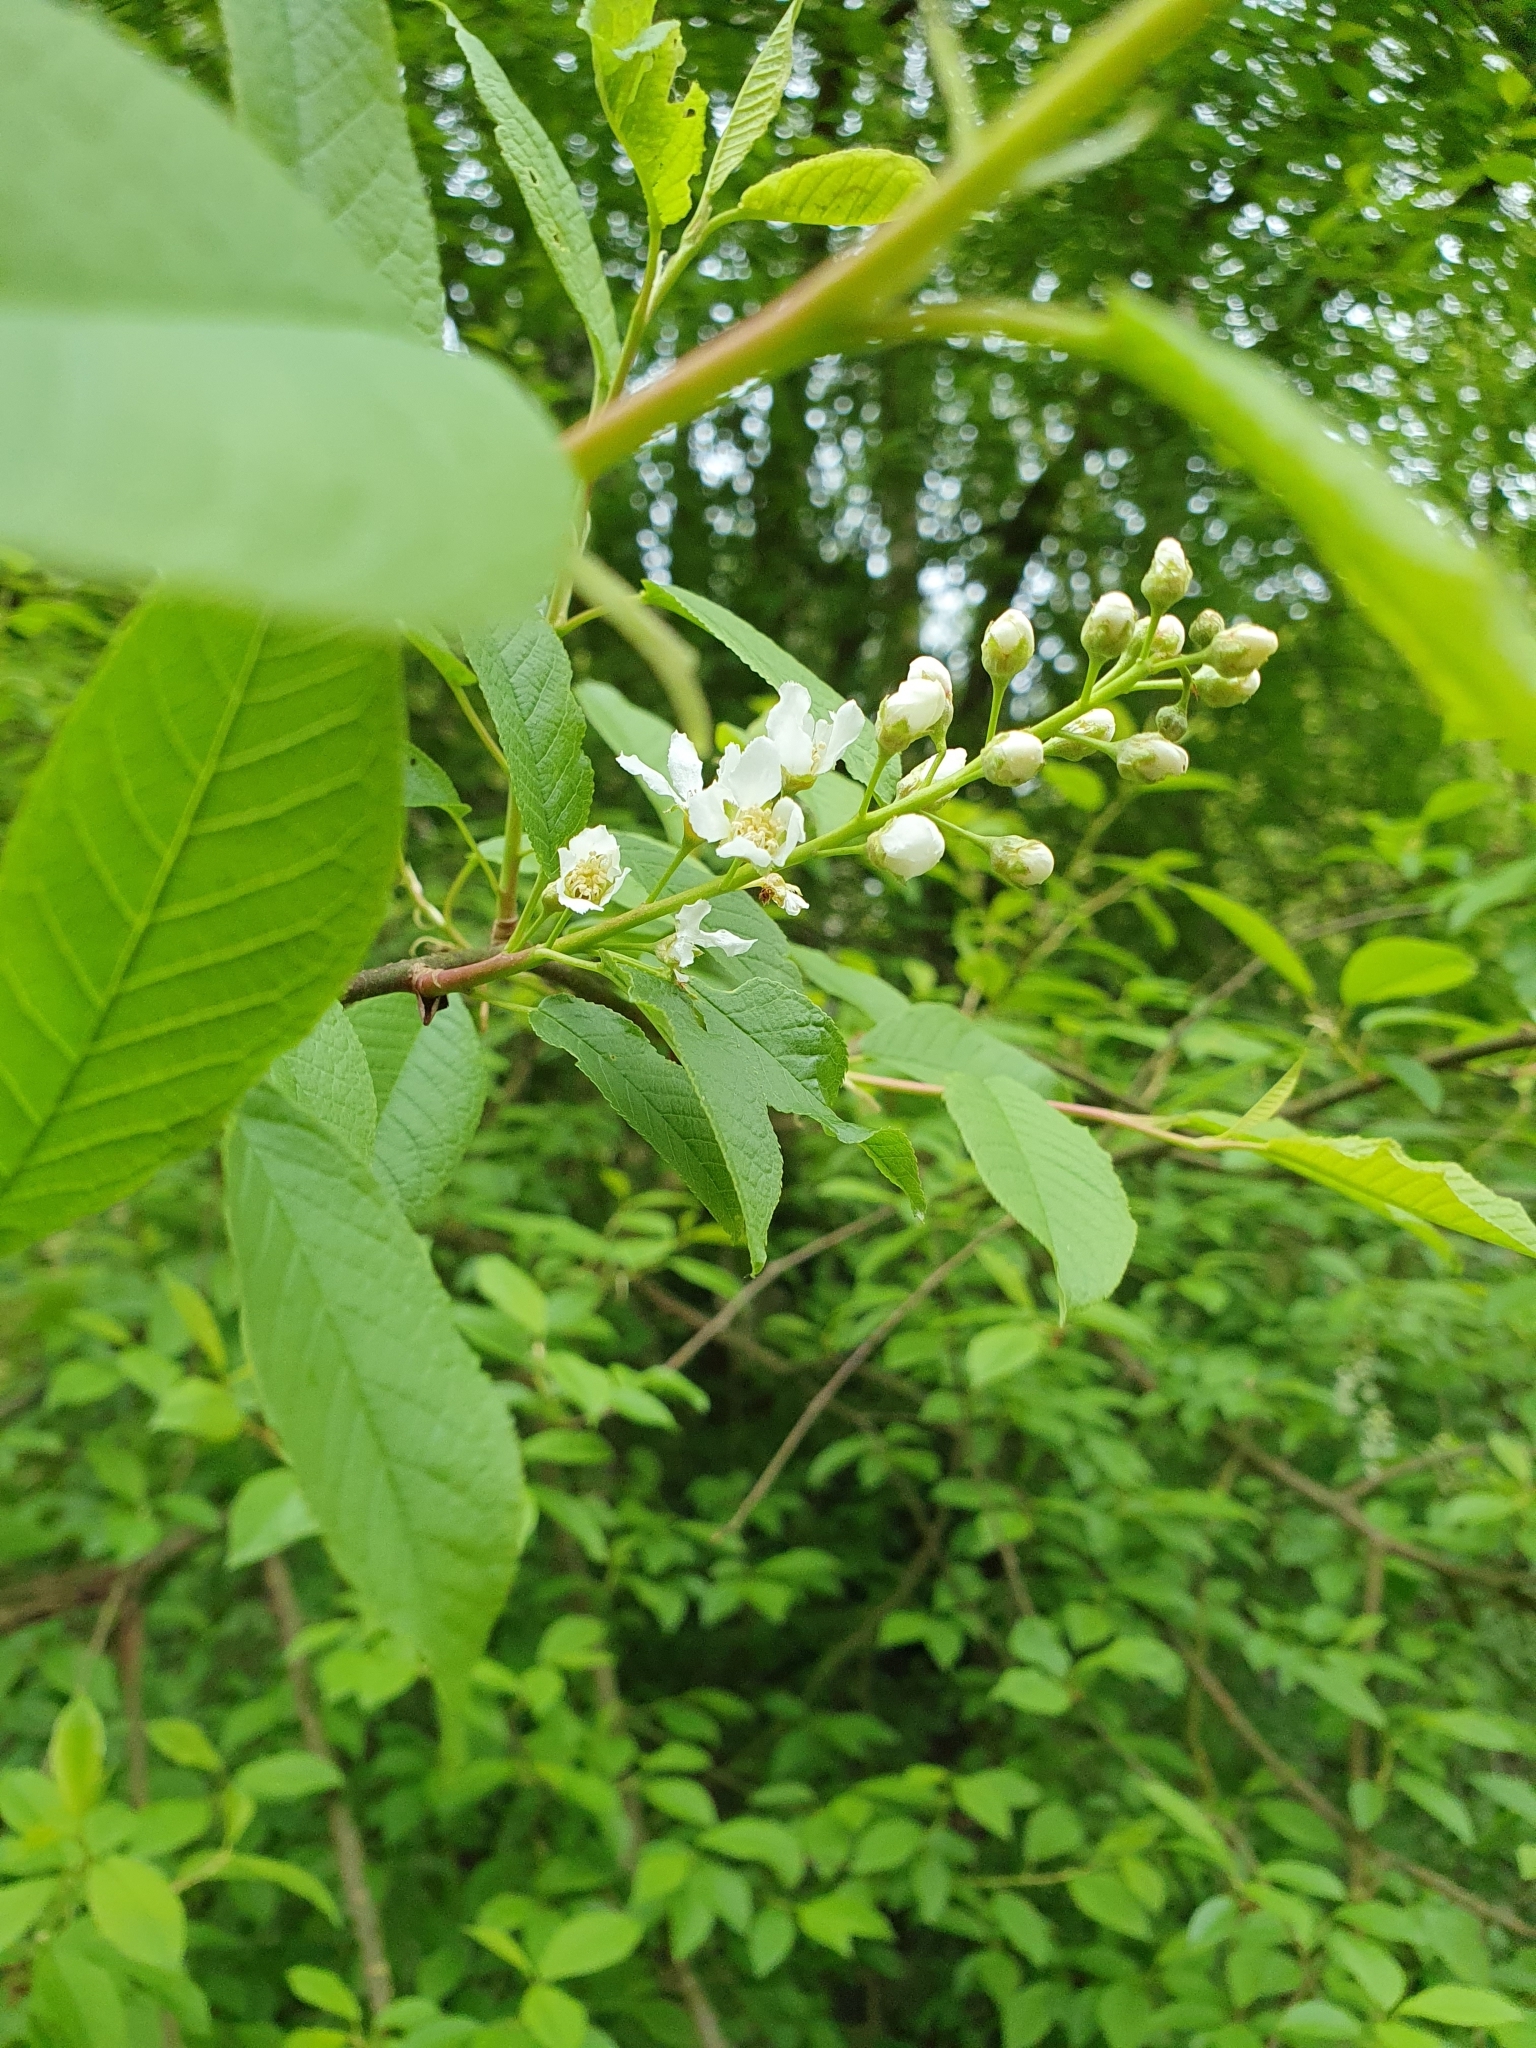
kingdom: Plantae
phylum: Tracheophyta
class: Magnoliopsida
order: Rosales
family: Rosaceae
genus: Prunus
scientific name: Prunus padus
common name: Bird cherry
